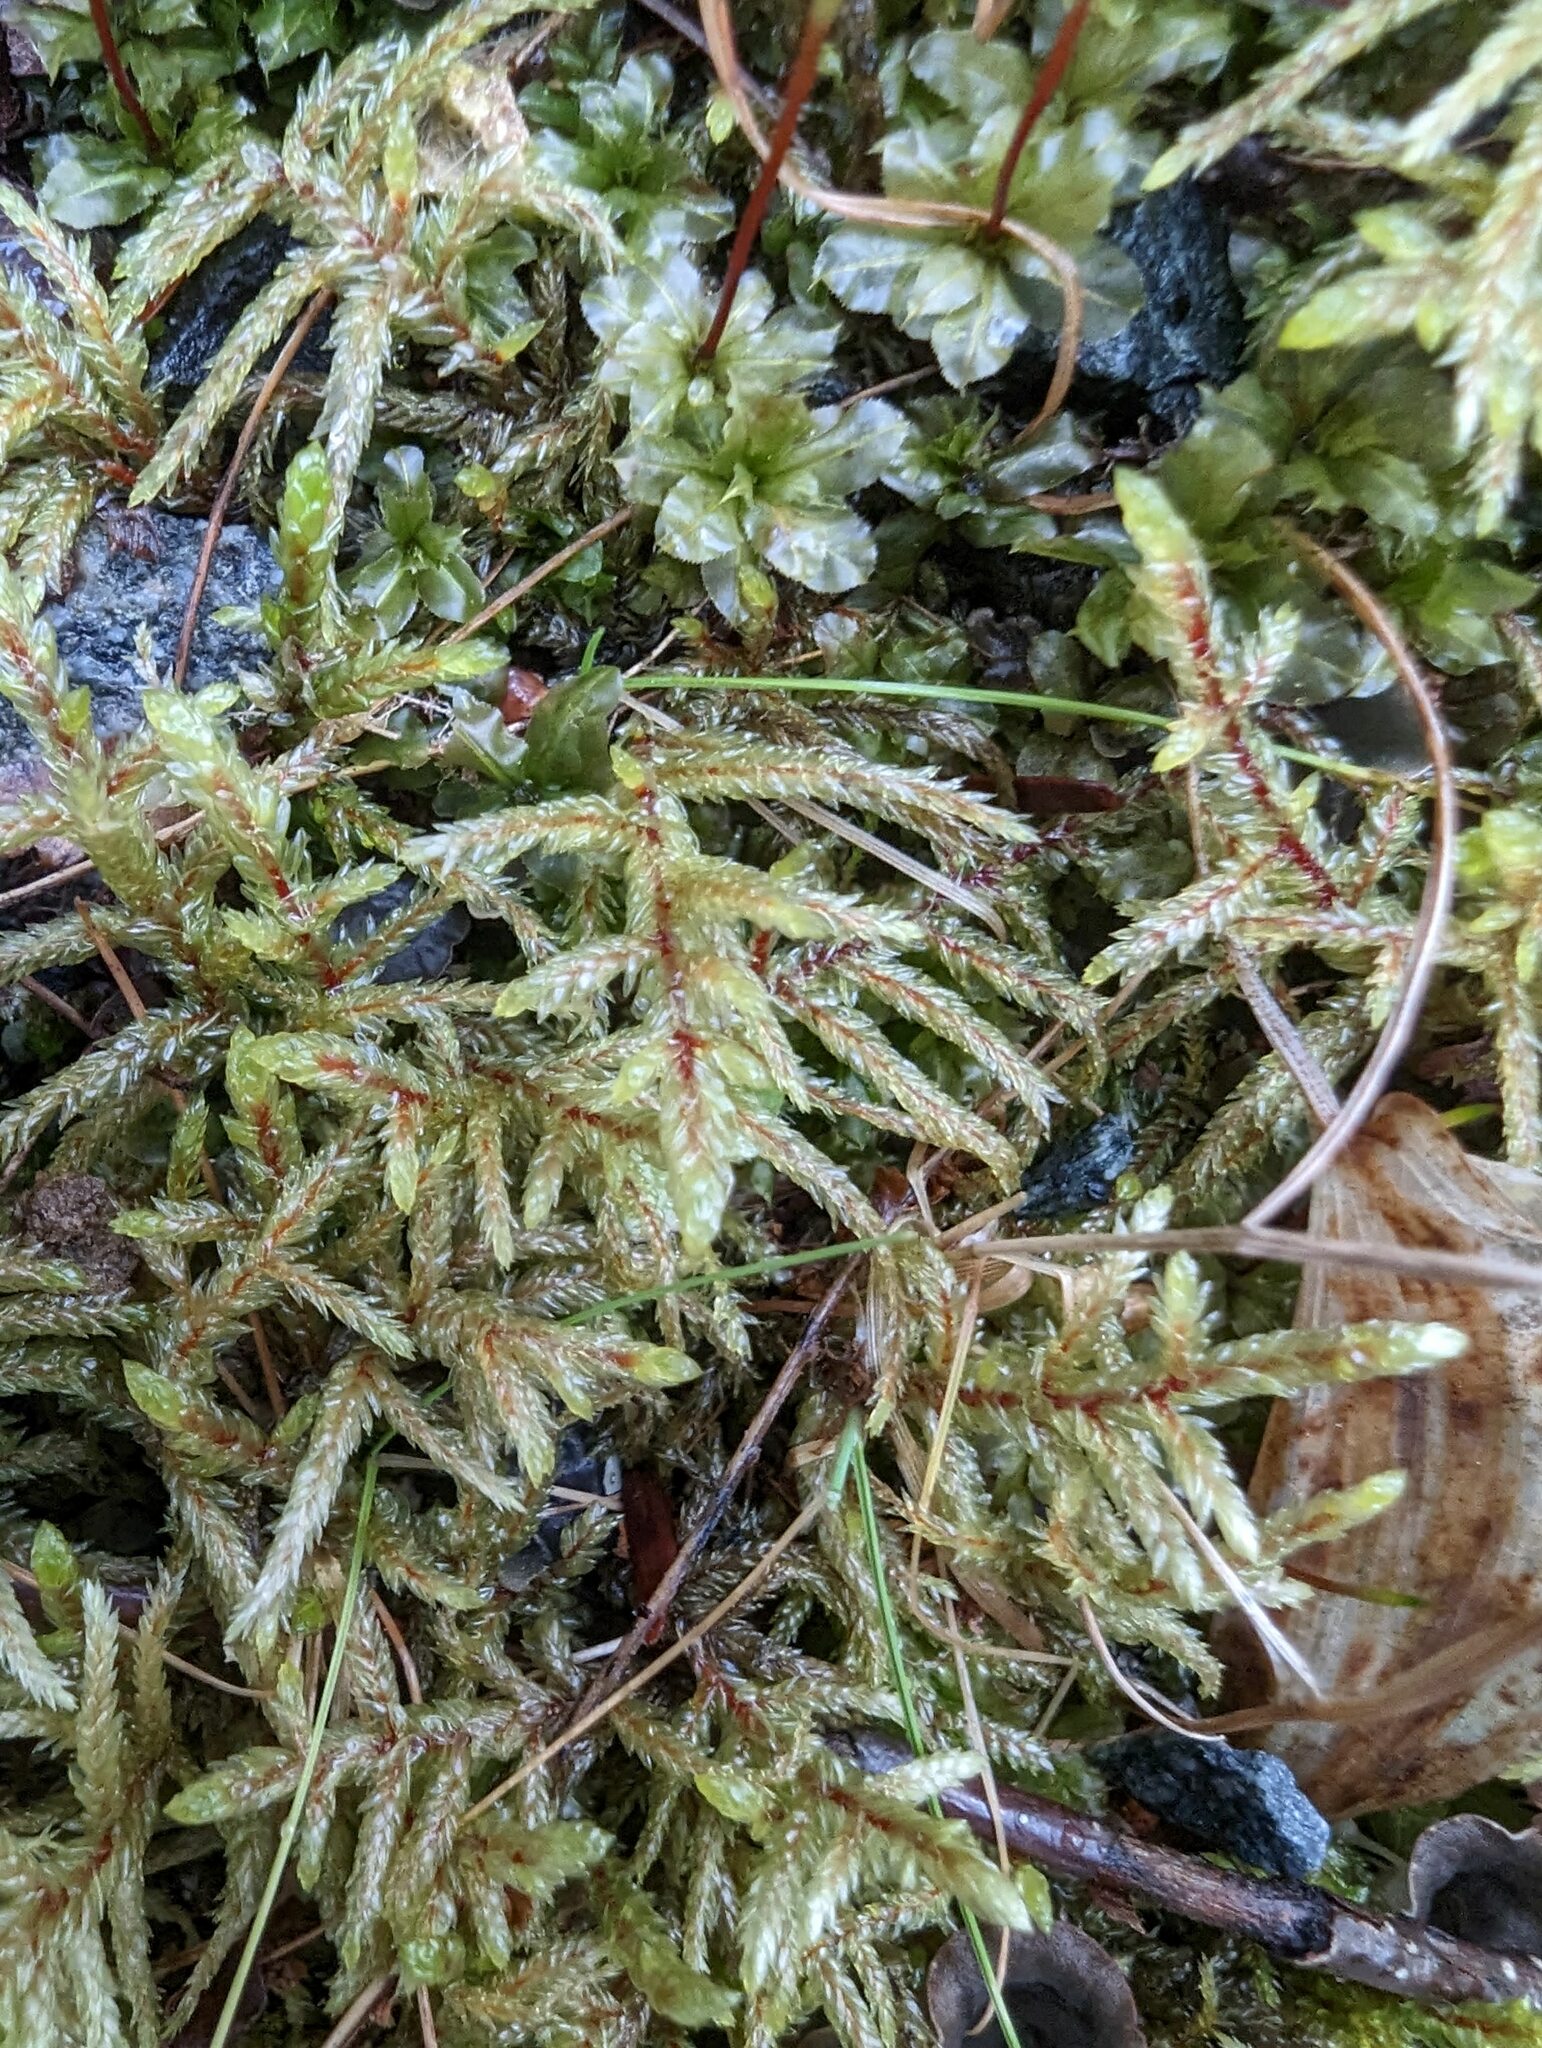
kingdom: Plantae
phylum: Bryophyta
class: Bryopsida
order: Hypnales
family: Hylocomiaceae
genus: Pleurozium
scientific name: Pleurozium schreberi
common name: Red-stemmed feather moss
